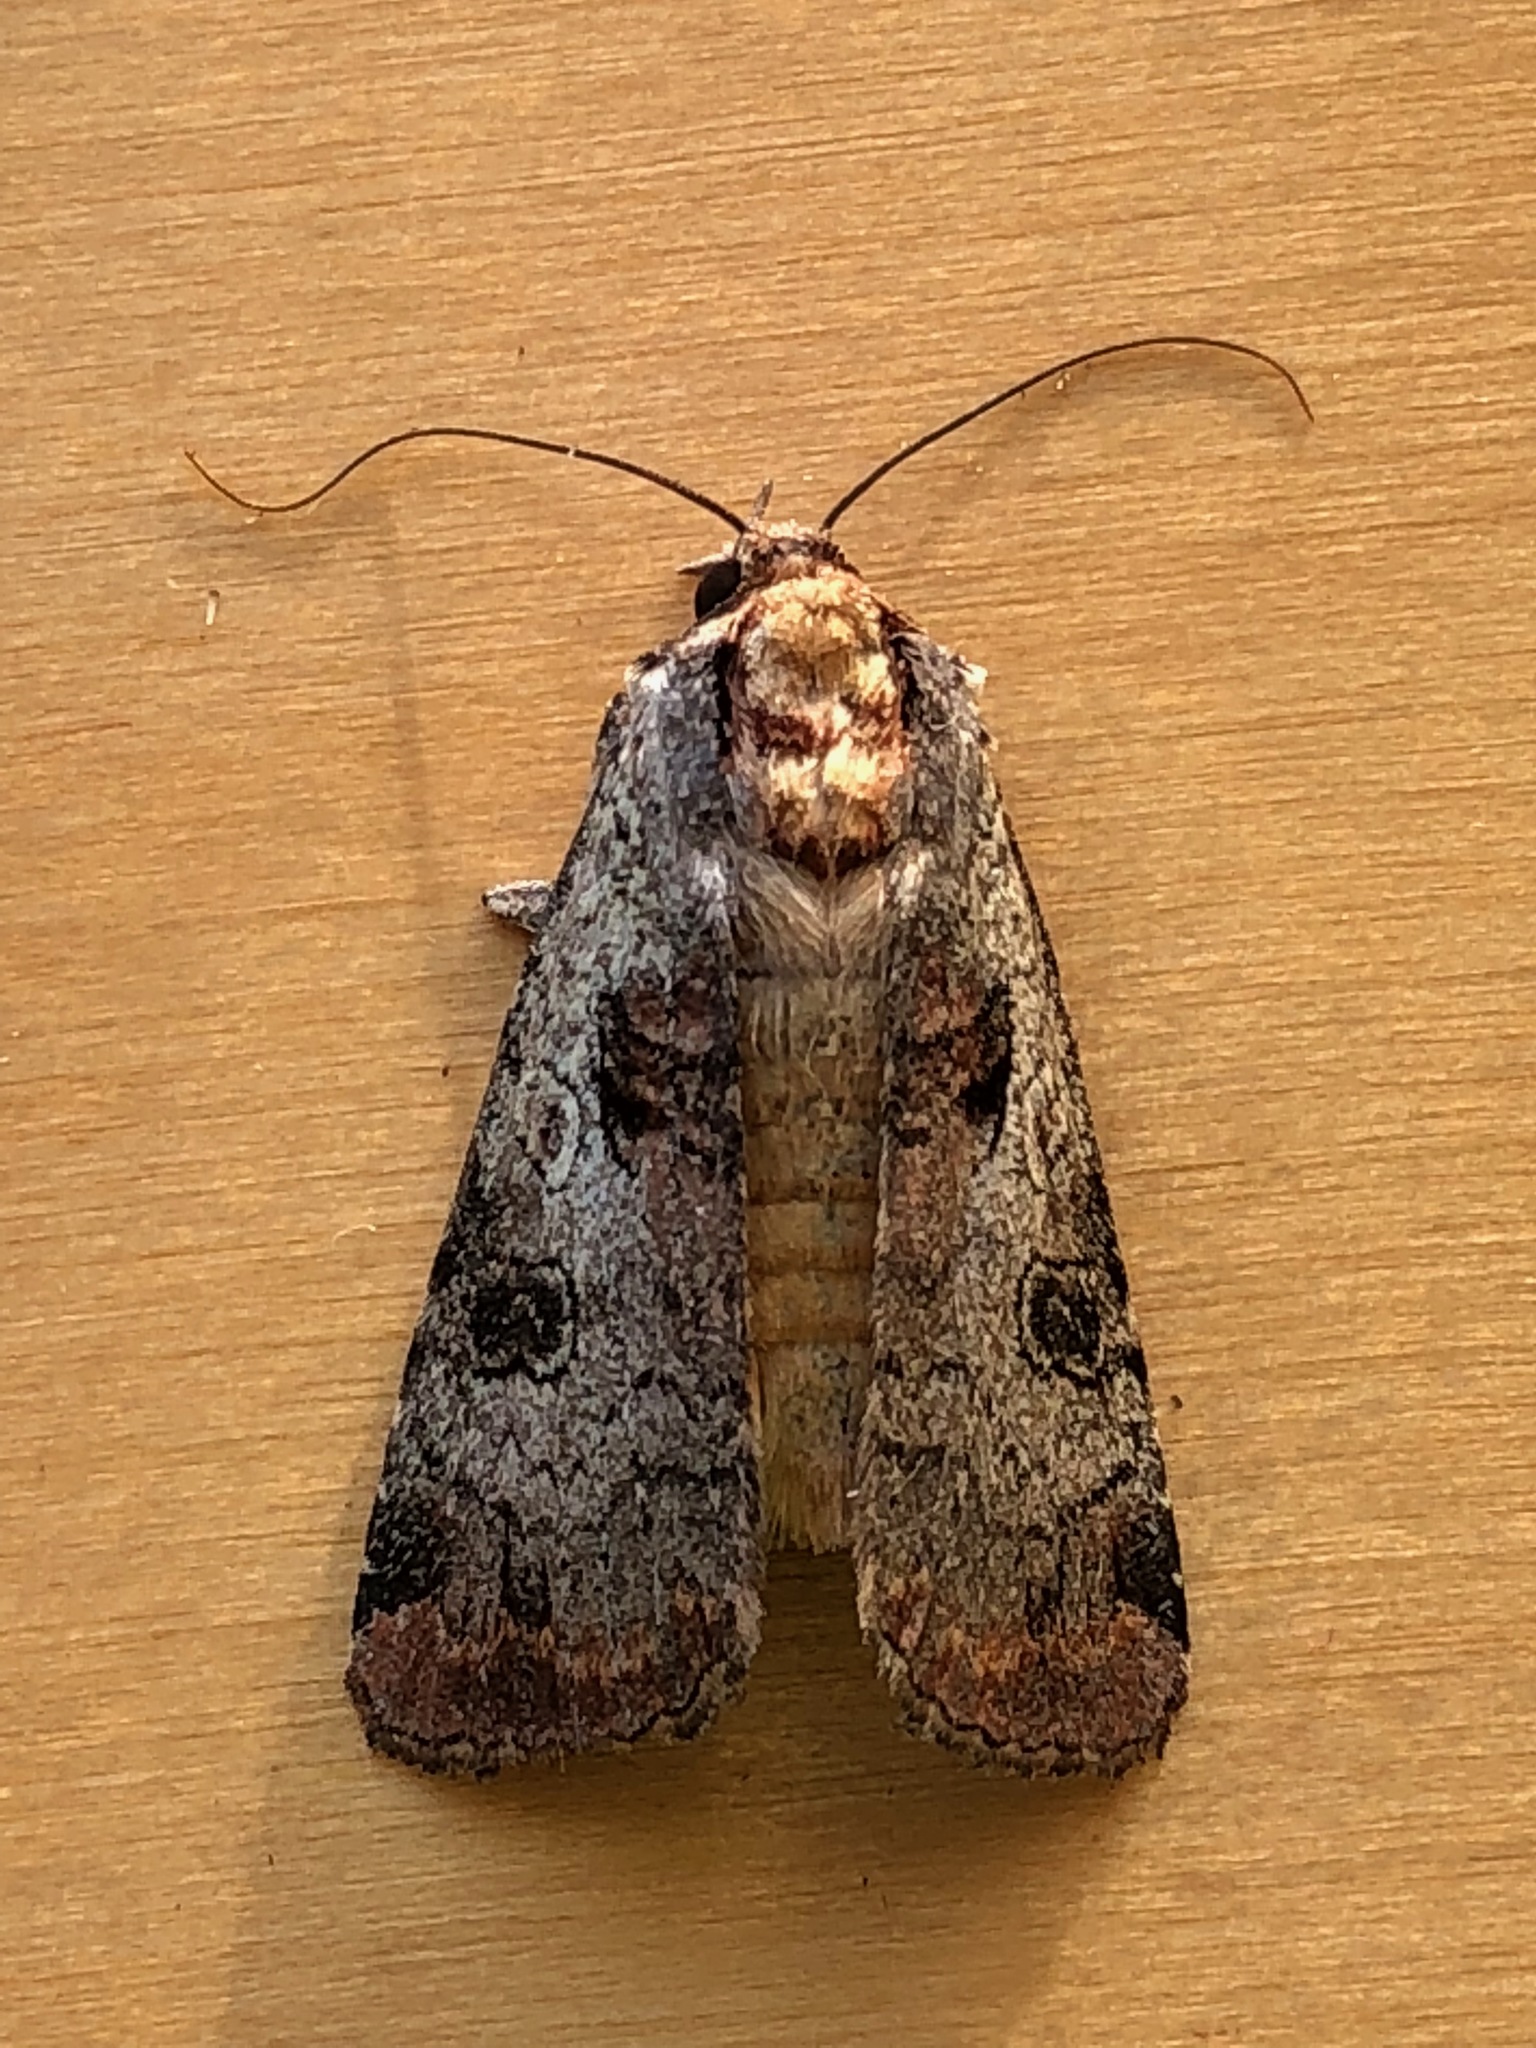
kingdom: Animalia
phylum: Arthropoda
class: Insecta
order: Lepidoptera
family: Noctuidae
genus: Epilecta
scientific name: Epilecta linogrisea
